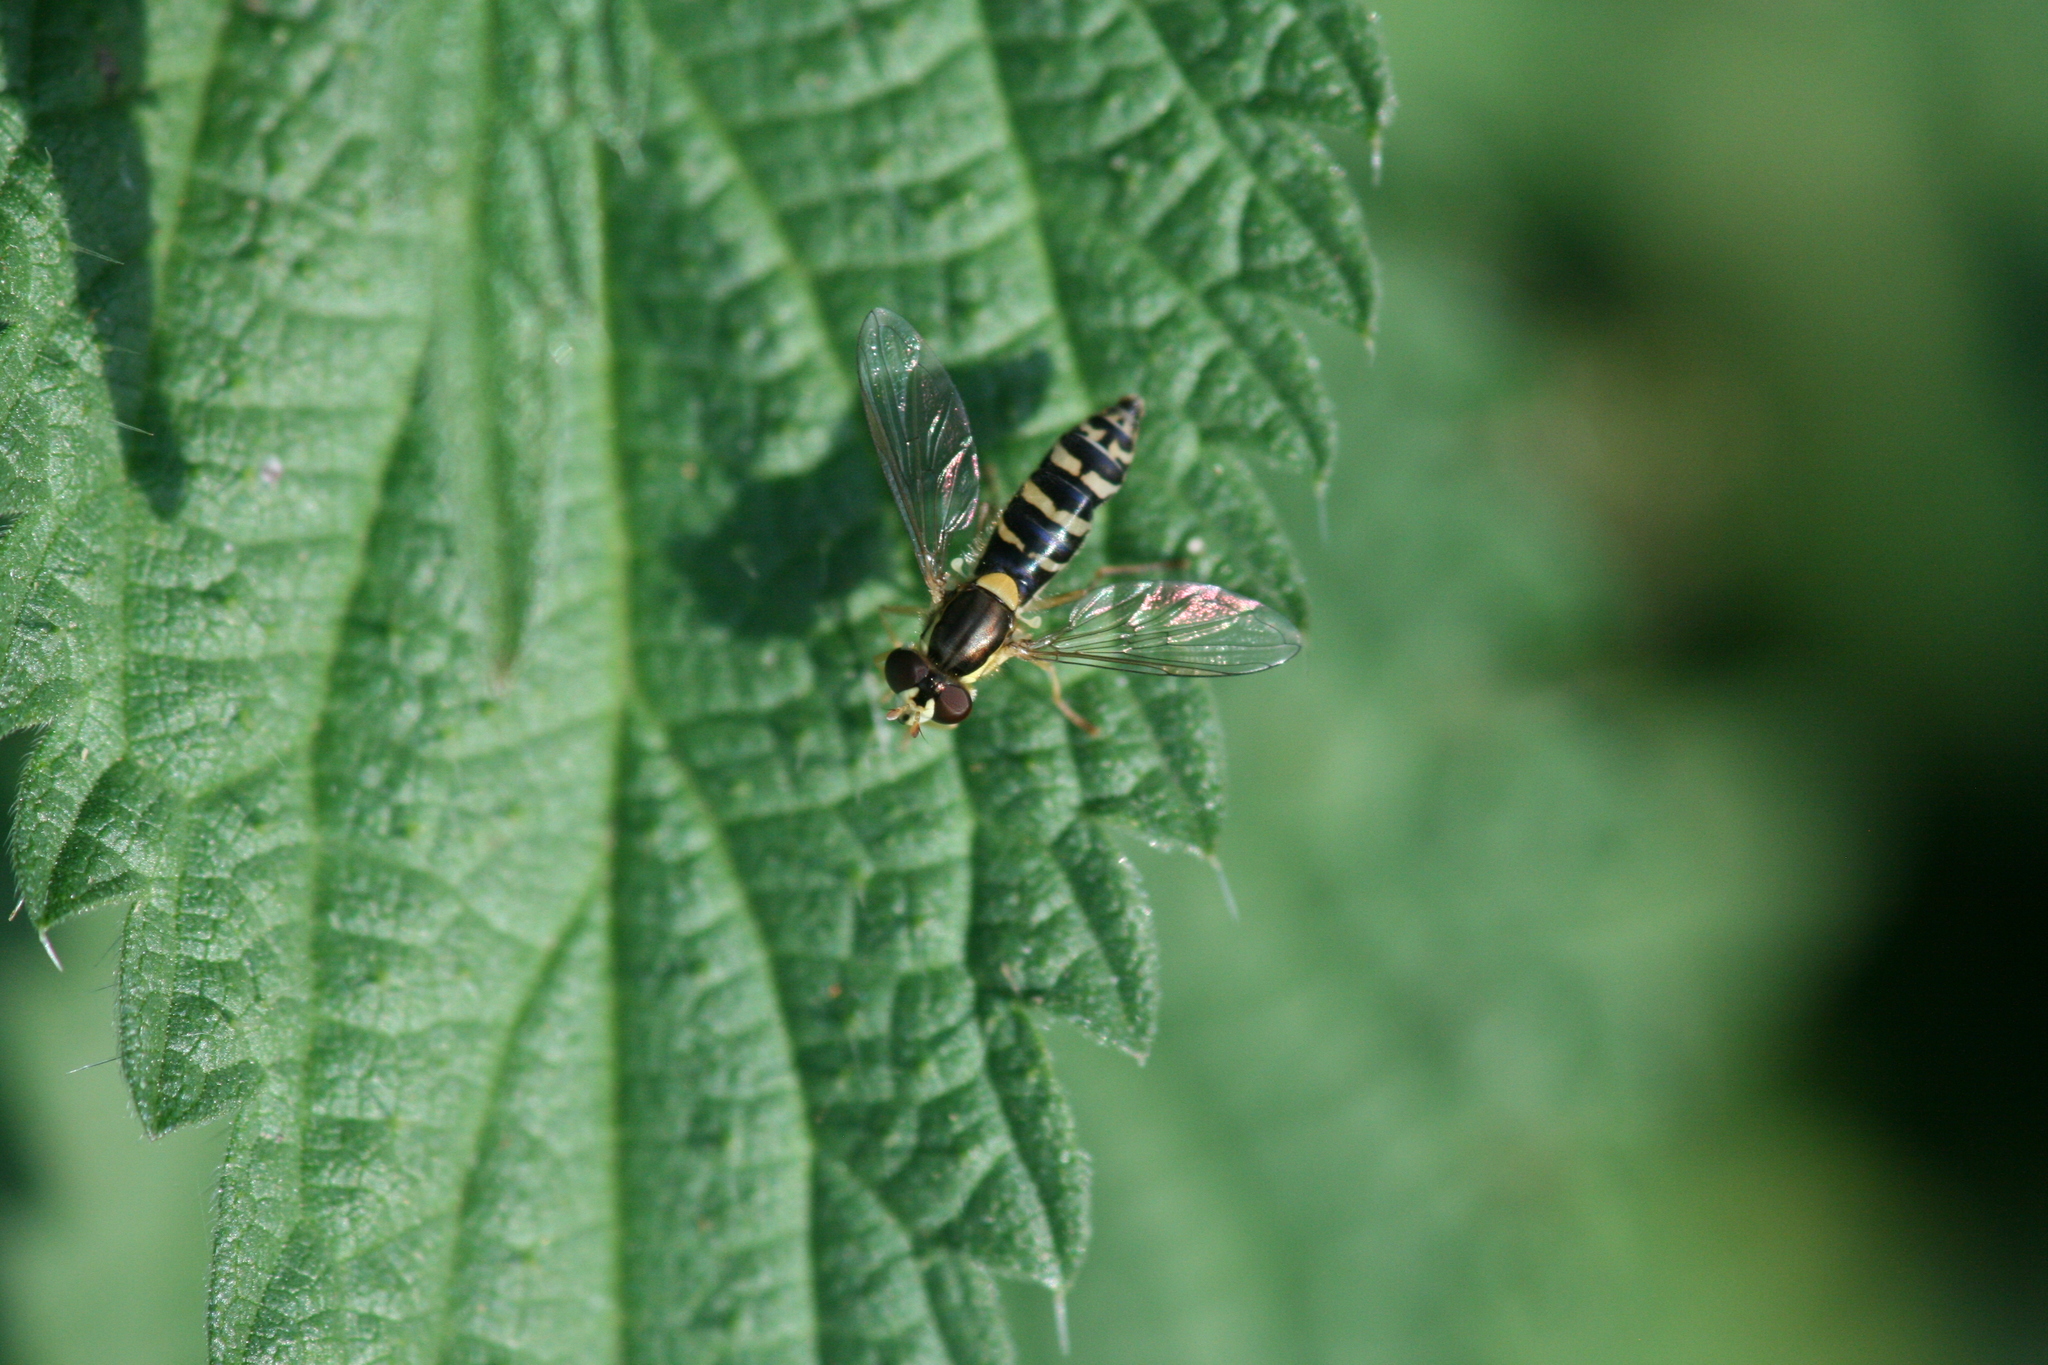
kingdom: Animalia
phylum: Arthropoda
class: Insecta
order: Diptera
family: Syrphidae
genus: Sphaerophoria
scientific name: Sphaerophoria
